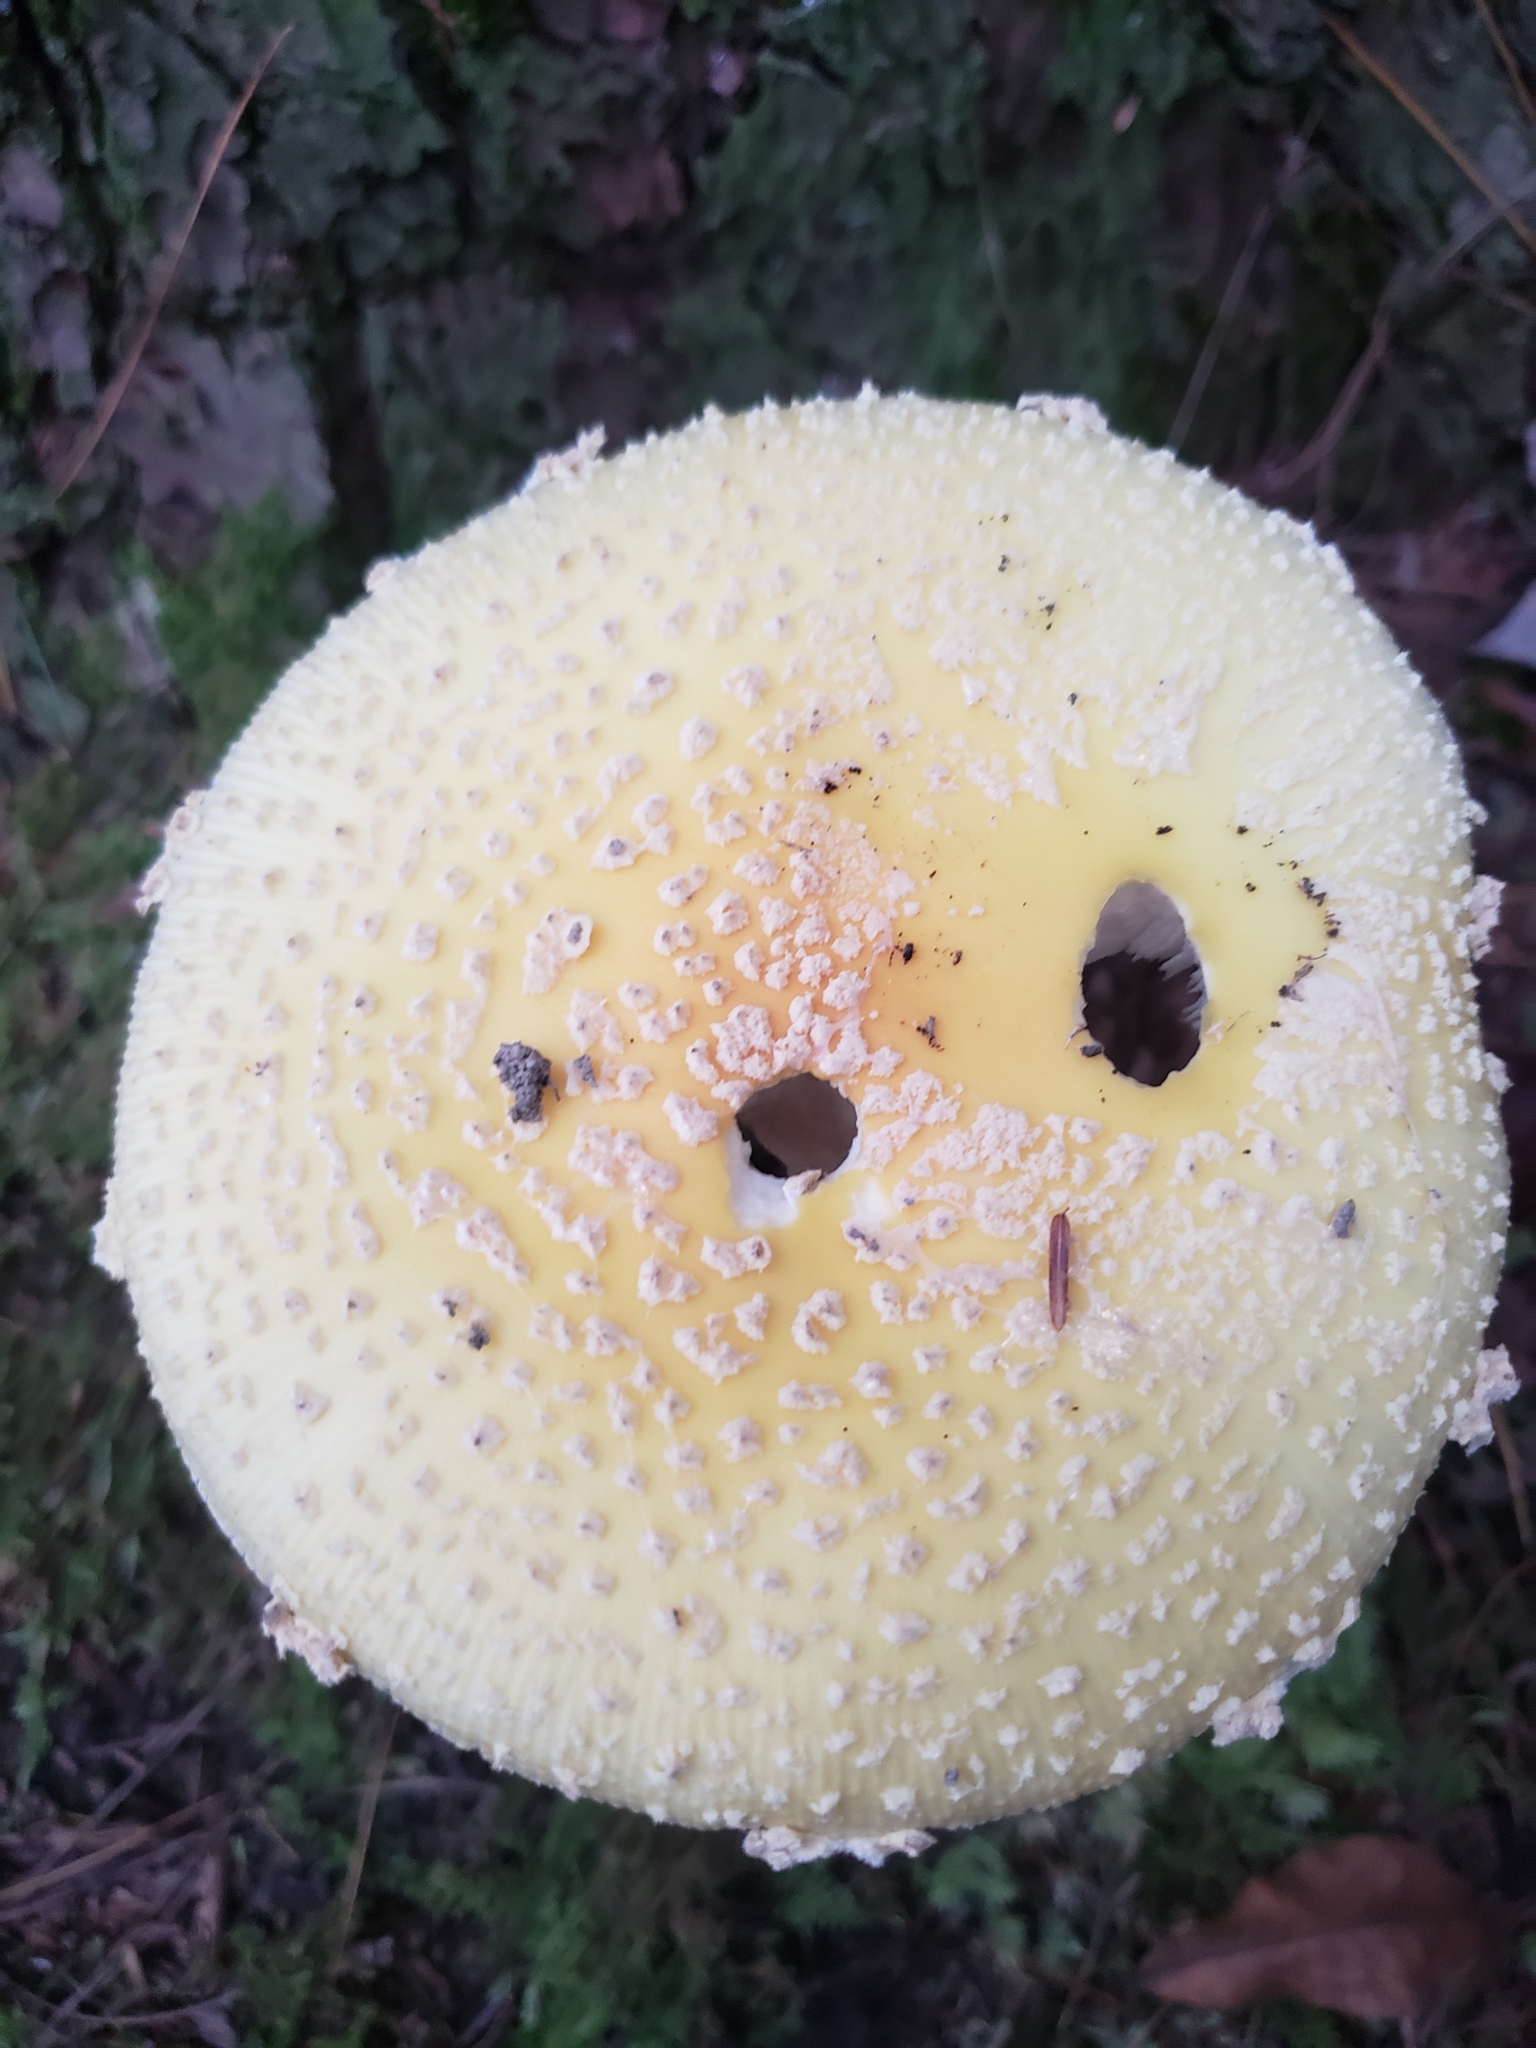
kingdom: Fungi
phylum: Basidiomycota
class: Agaricomycetes
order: Agaricales
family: Amanitaceae
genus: Amanita
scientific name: Amanita muscaria
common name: Fly agaric
